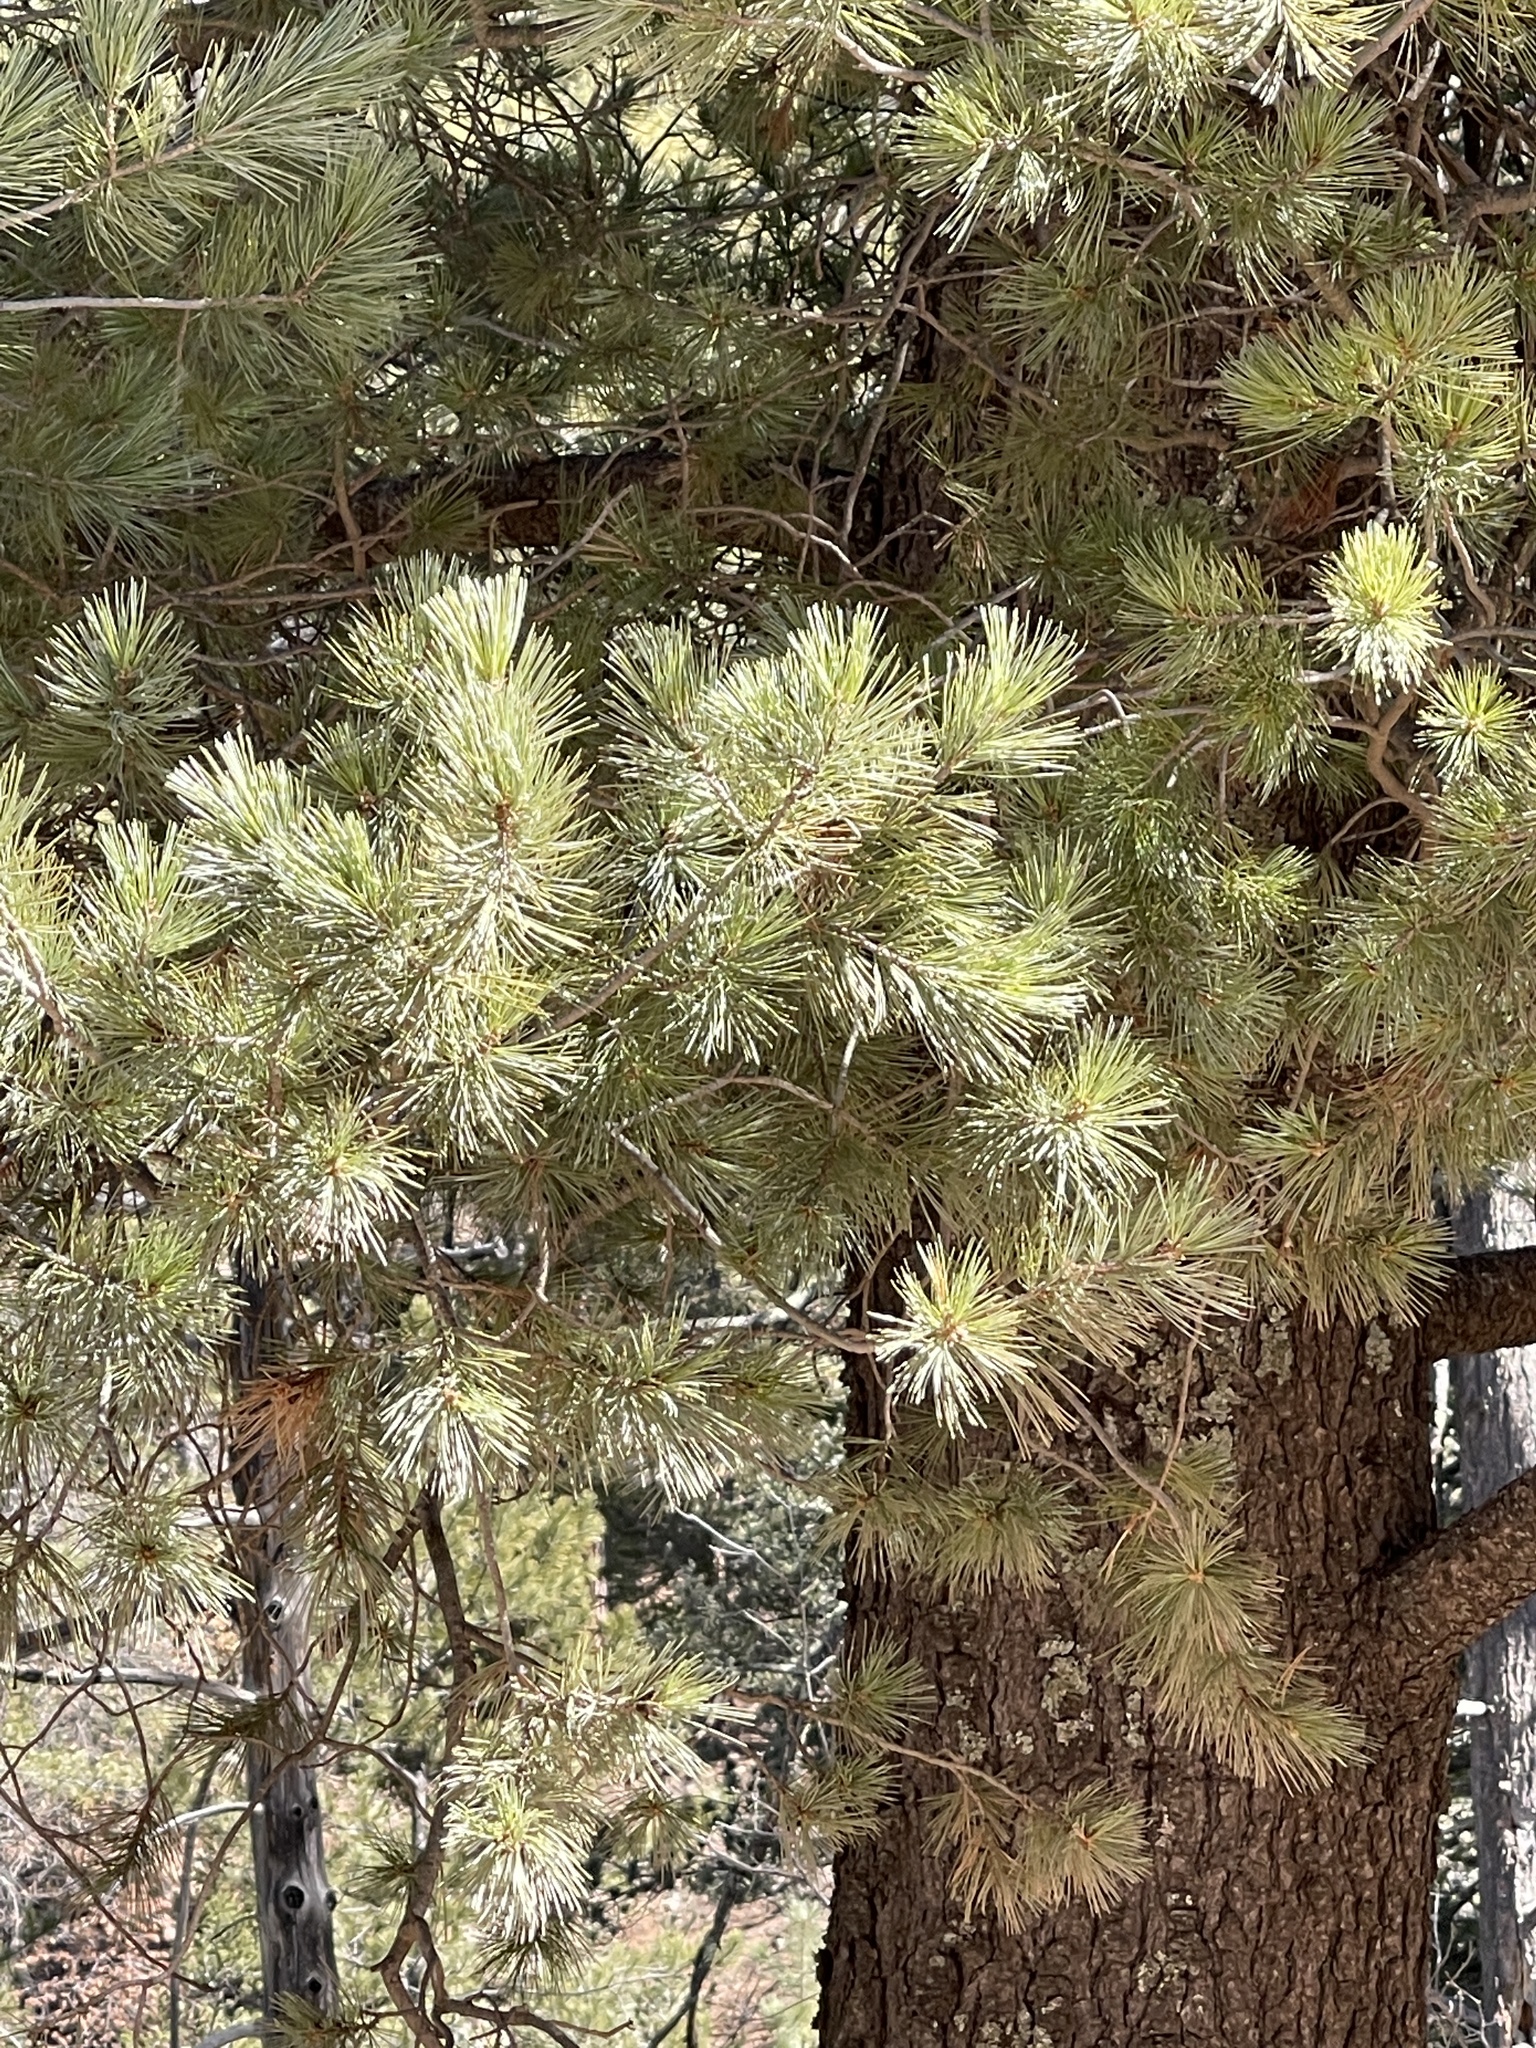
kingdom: Plantae
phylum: Tracheophyta
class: Pinopsida
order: Pinales
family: Pinaceae
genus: Pinus
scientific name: Pinus strobiformis
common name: Southwestern white pine
